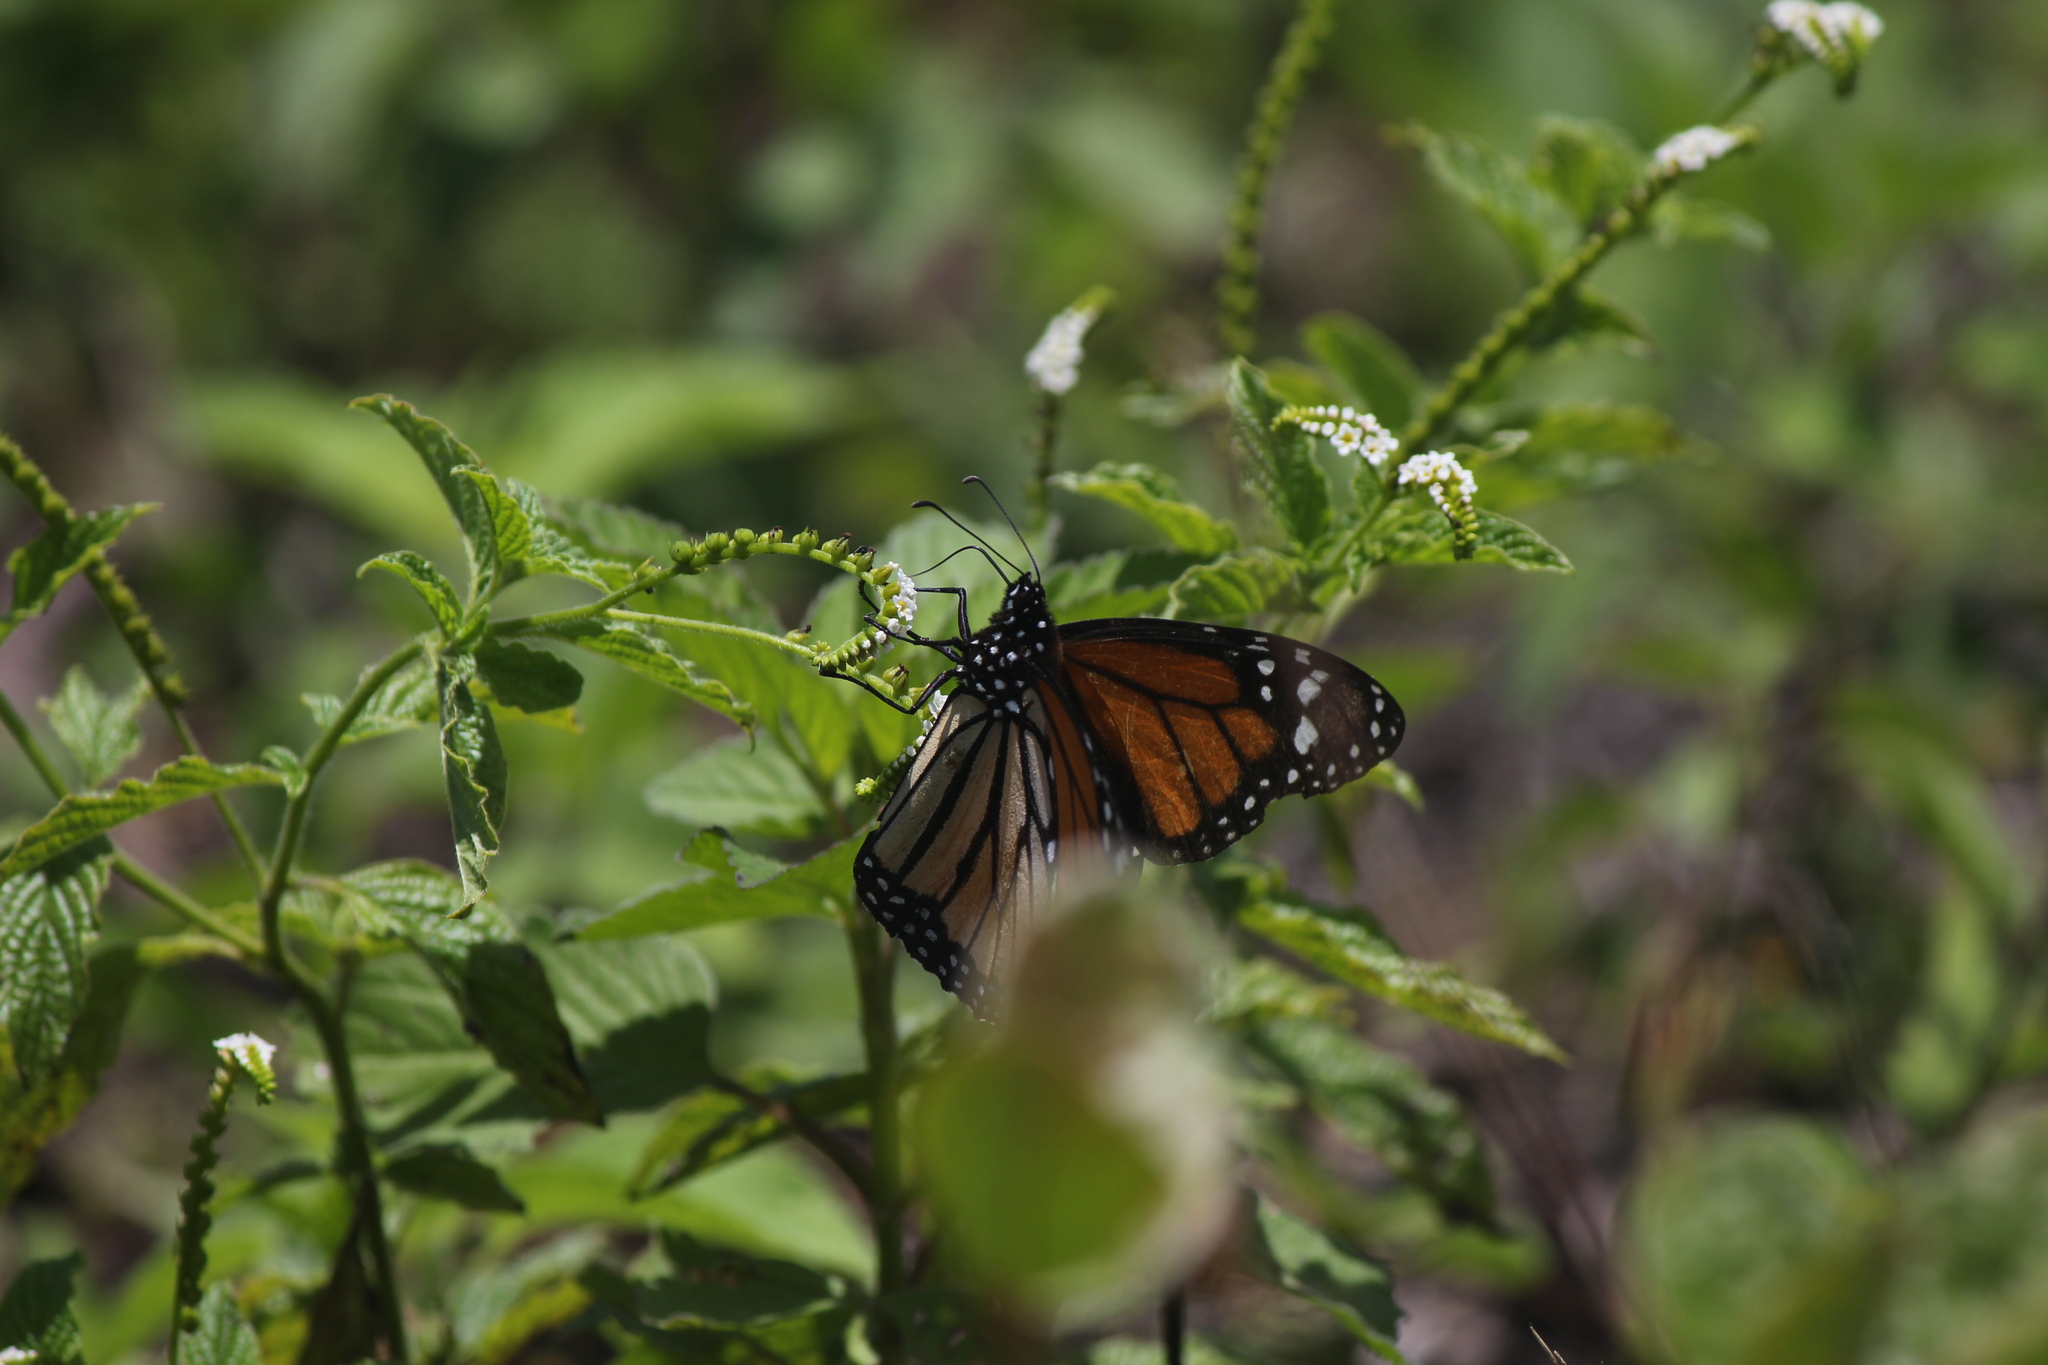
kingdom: Animalia
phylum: Arthropoda
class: Insecta
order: Lepidoptera
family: Nymphalidae
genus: Danaus
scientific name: Danaus plexippus
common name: Monarch
